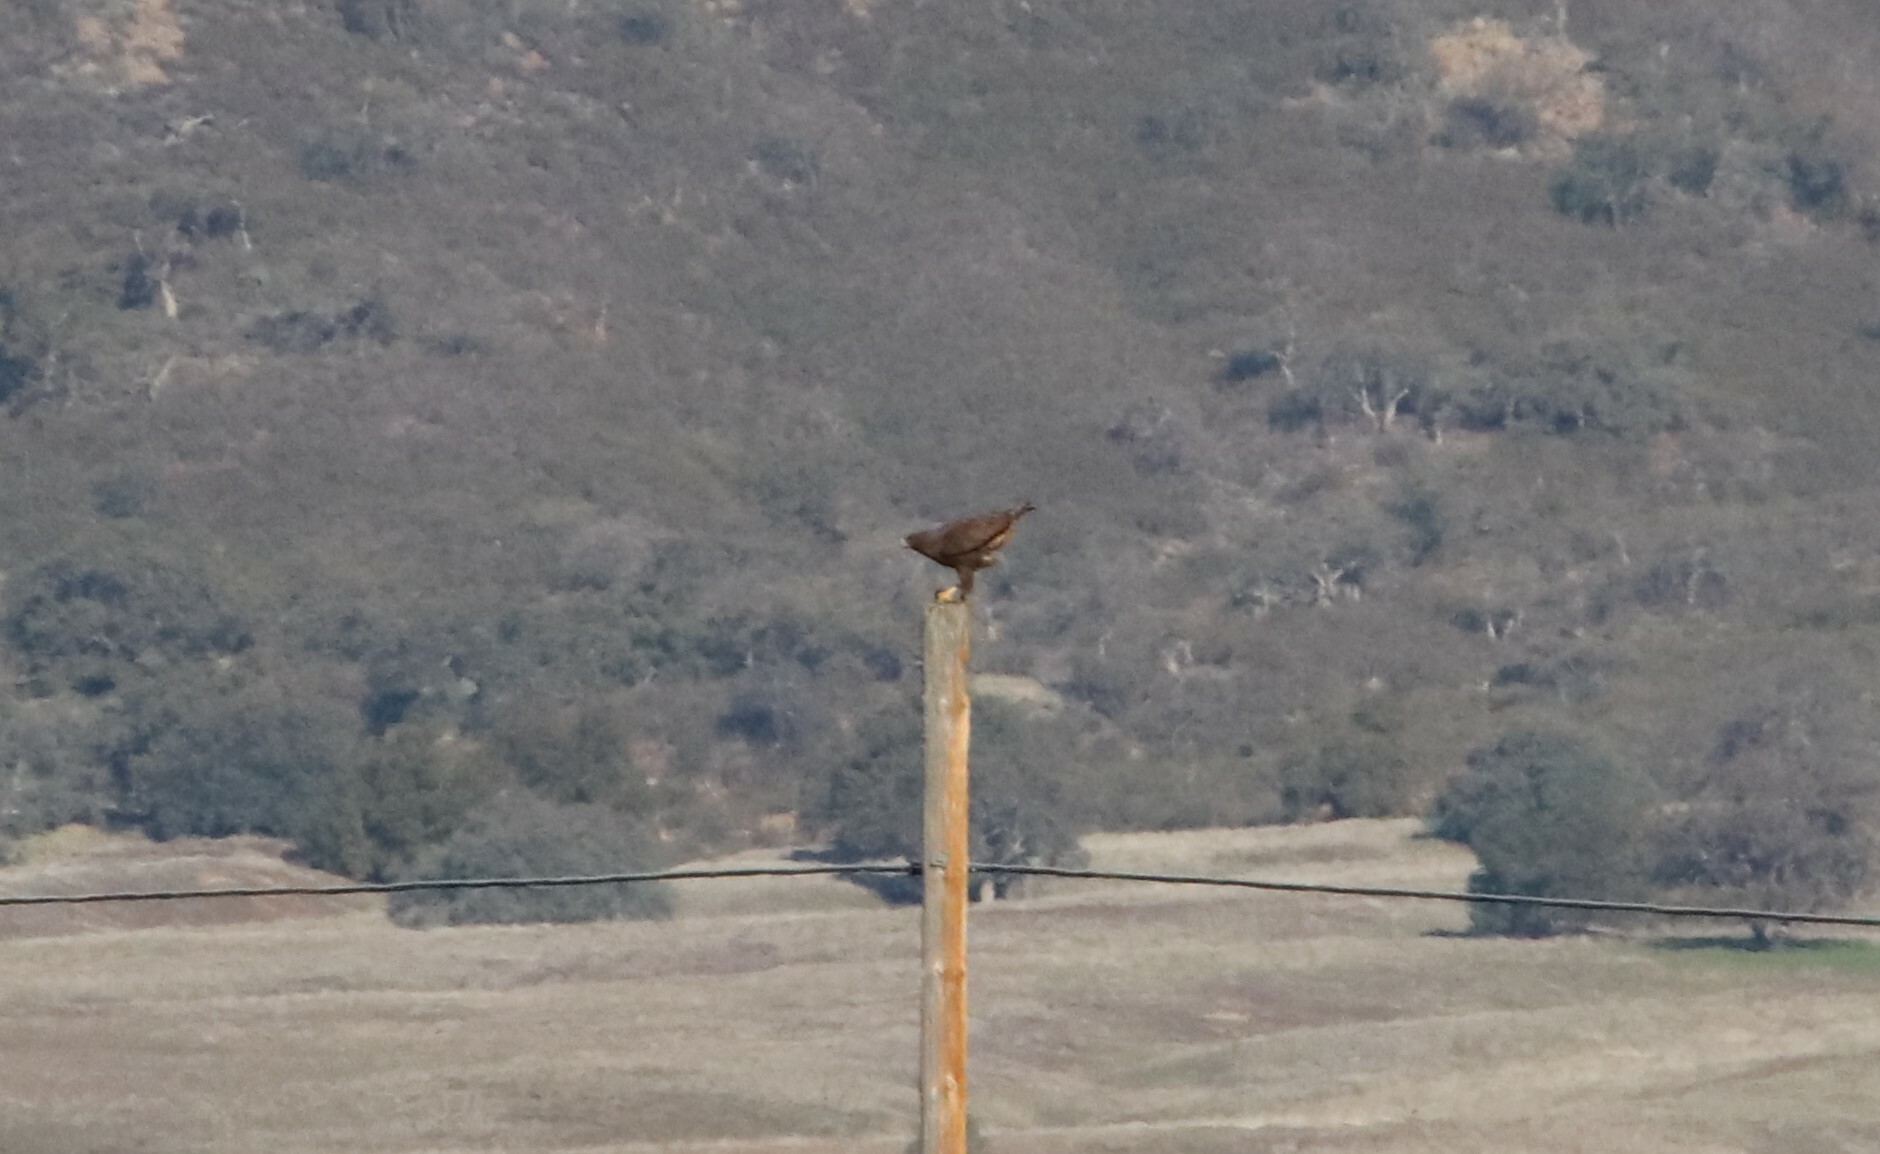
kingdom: Animalia
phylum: Chordata
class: Aves
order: Accipitriformes
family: Accipitridae
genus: Buteo
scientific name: Buteo jamaicensis
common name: Red-tailed hawk
